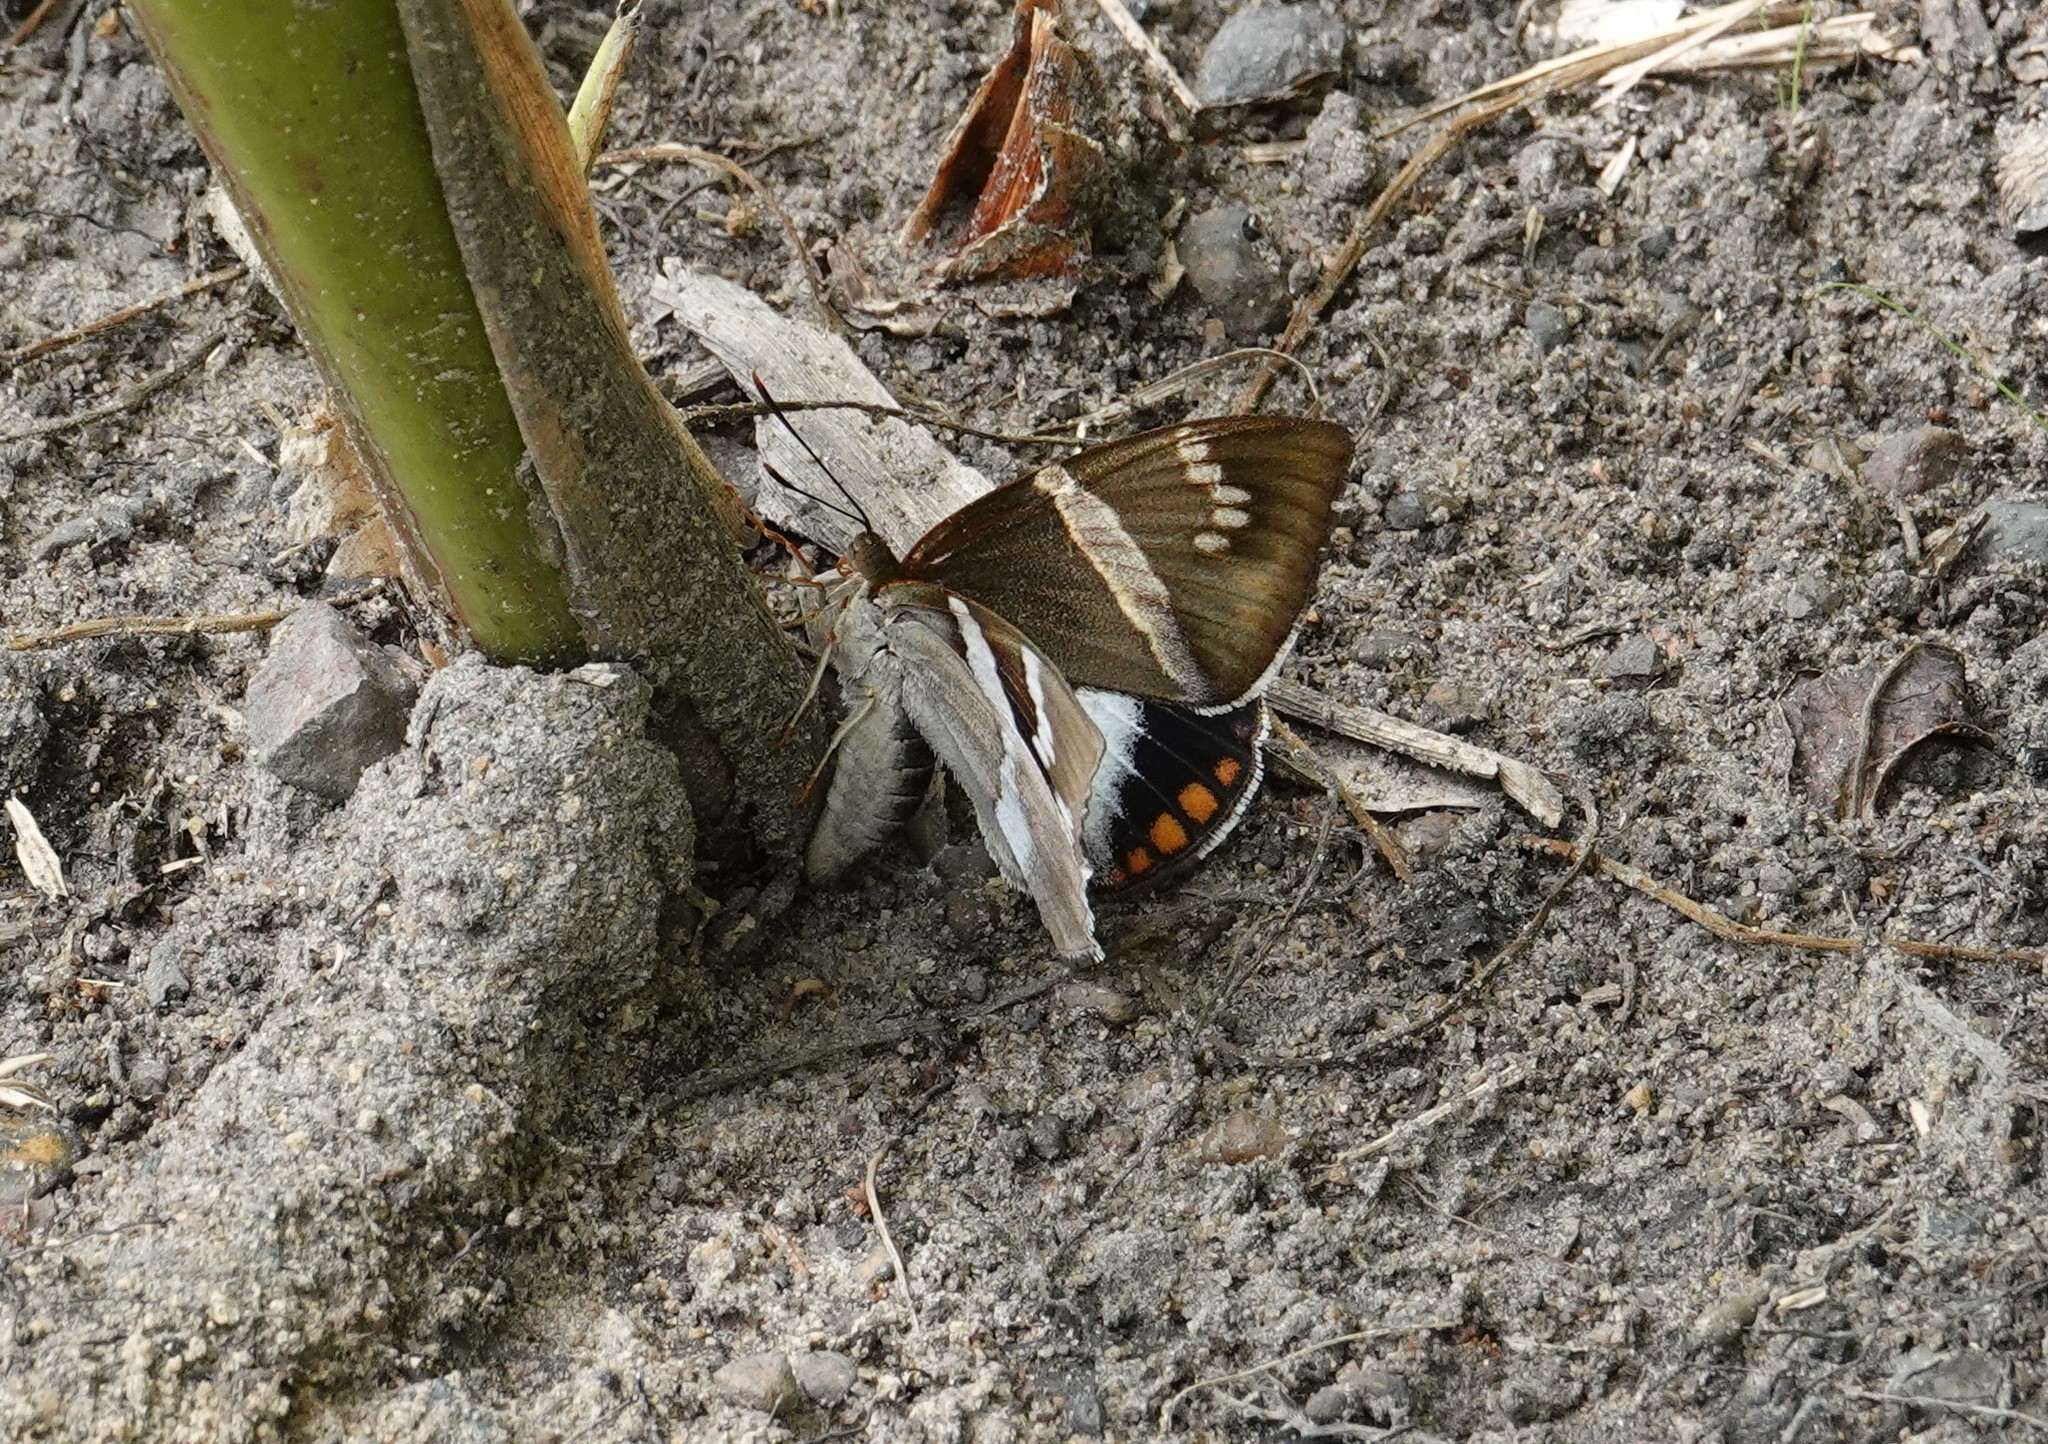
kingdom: Animalia
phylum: Arthropoda
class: Insecta
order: Lepidoptera
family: Castniidae
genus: Castnia
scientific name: Castnia licus
